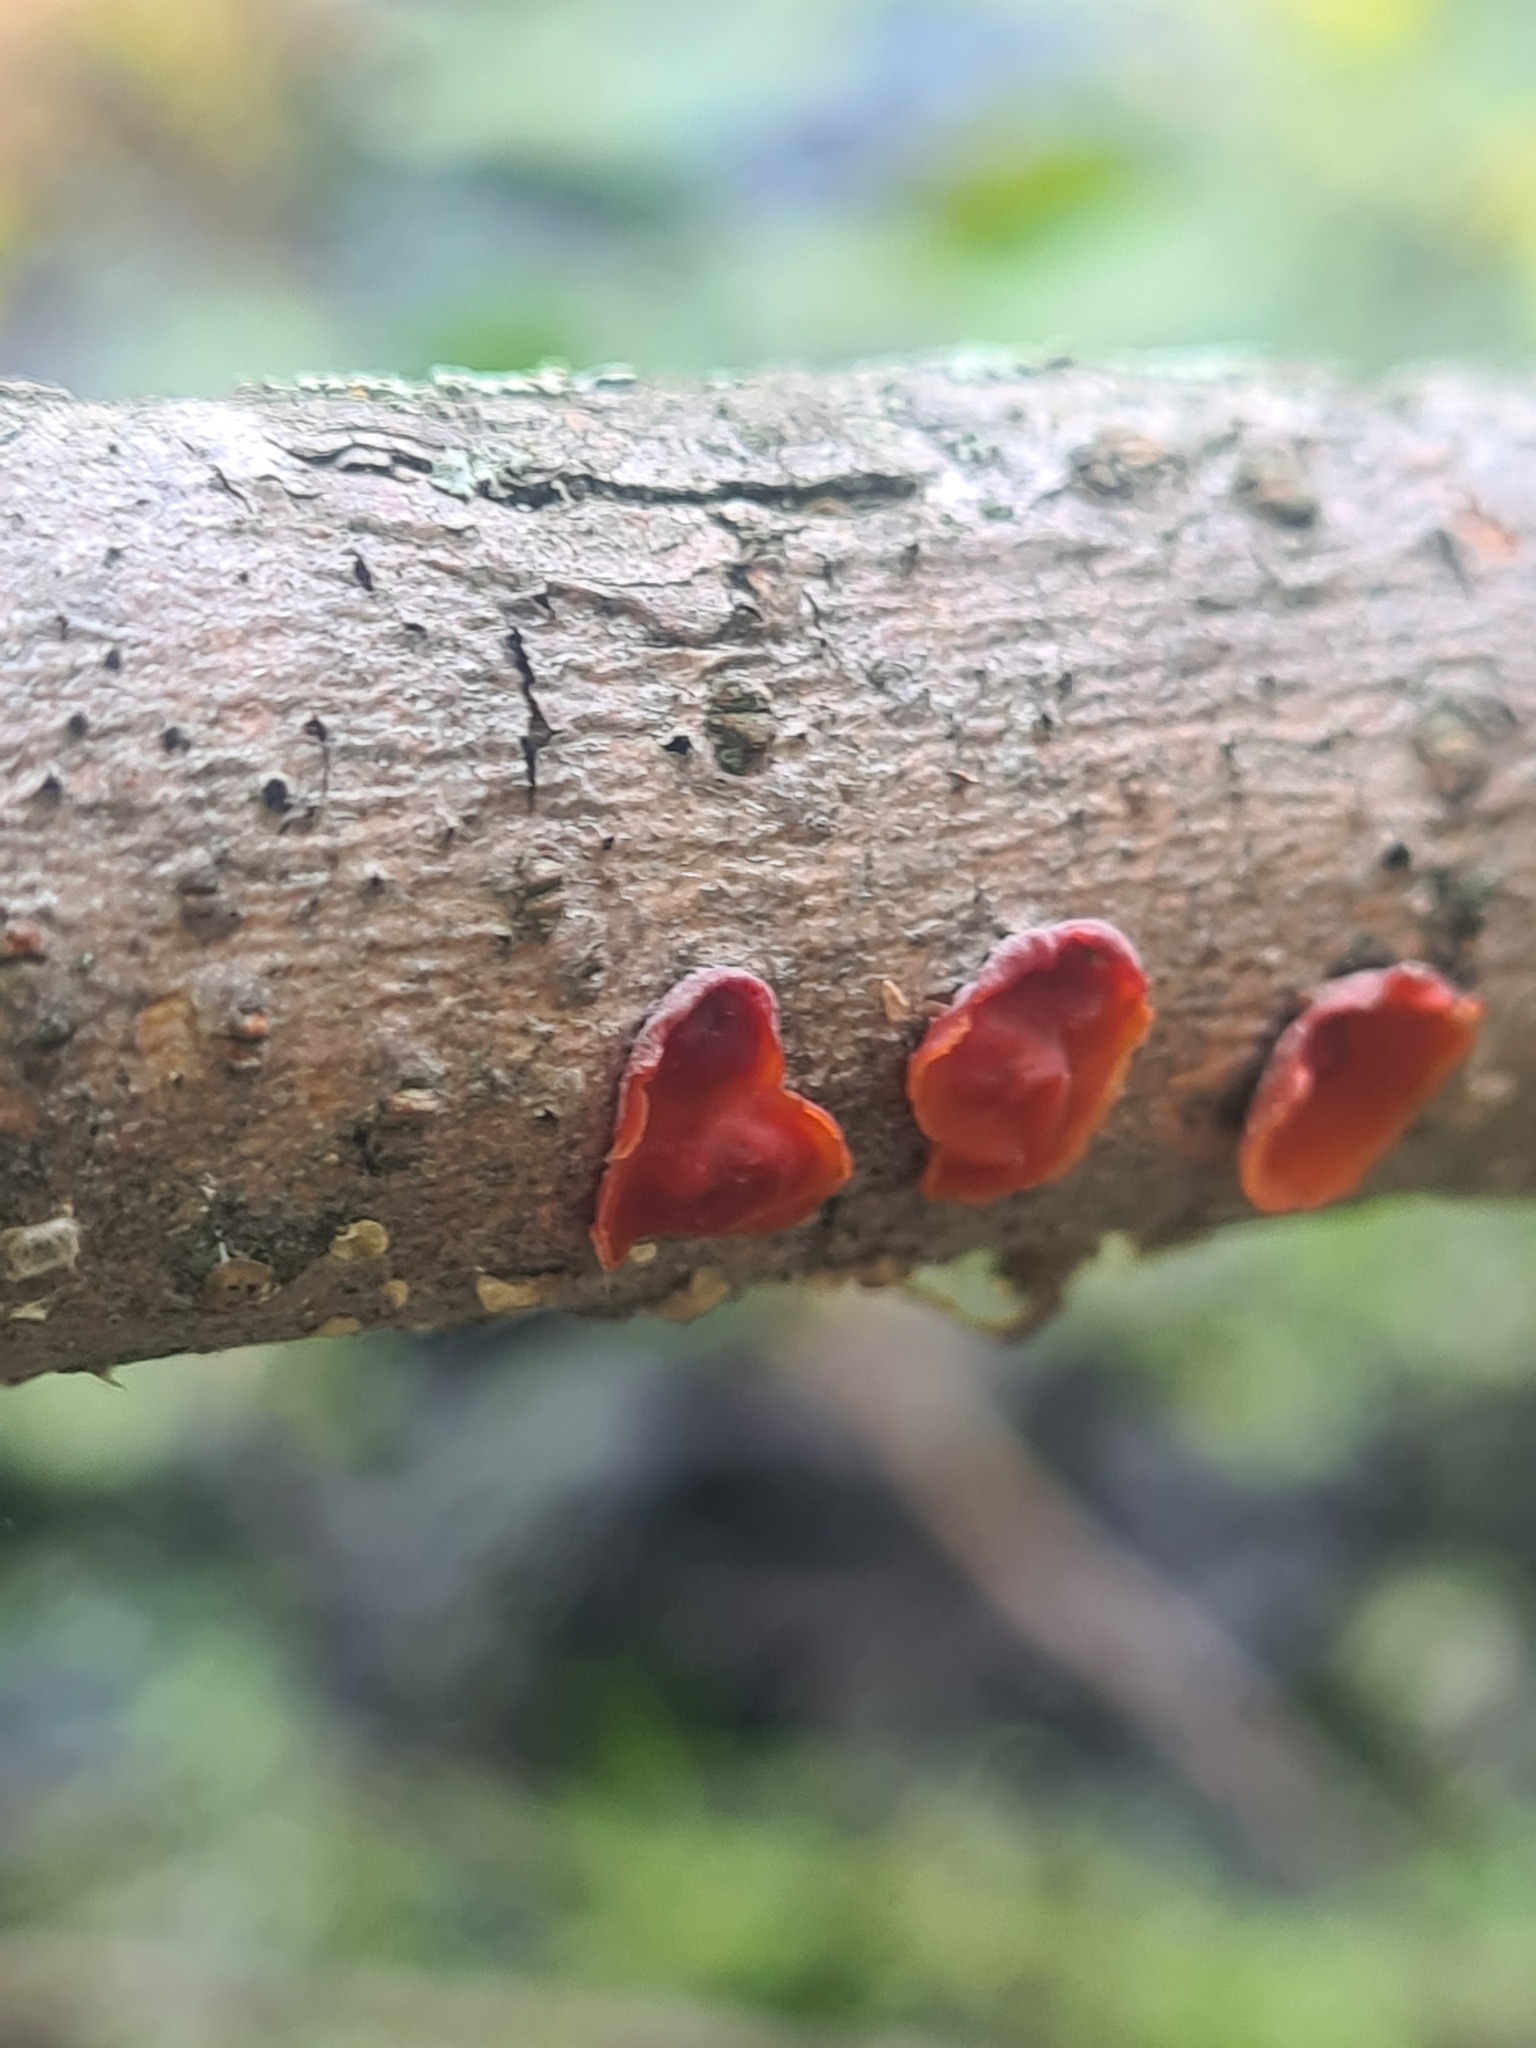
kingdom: Fungi
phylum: Basidiomycota
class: Agaricomycetes
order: Corticiales
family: Vuilleminiaceae
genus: Cytidia
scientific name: Cytidia salicina
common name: Scarlet splash
